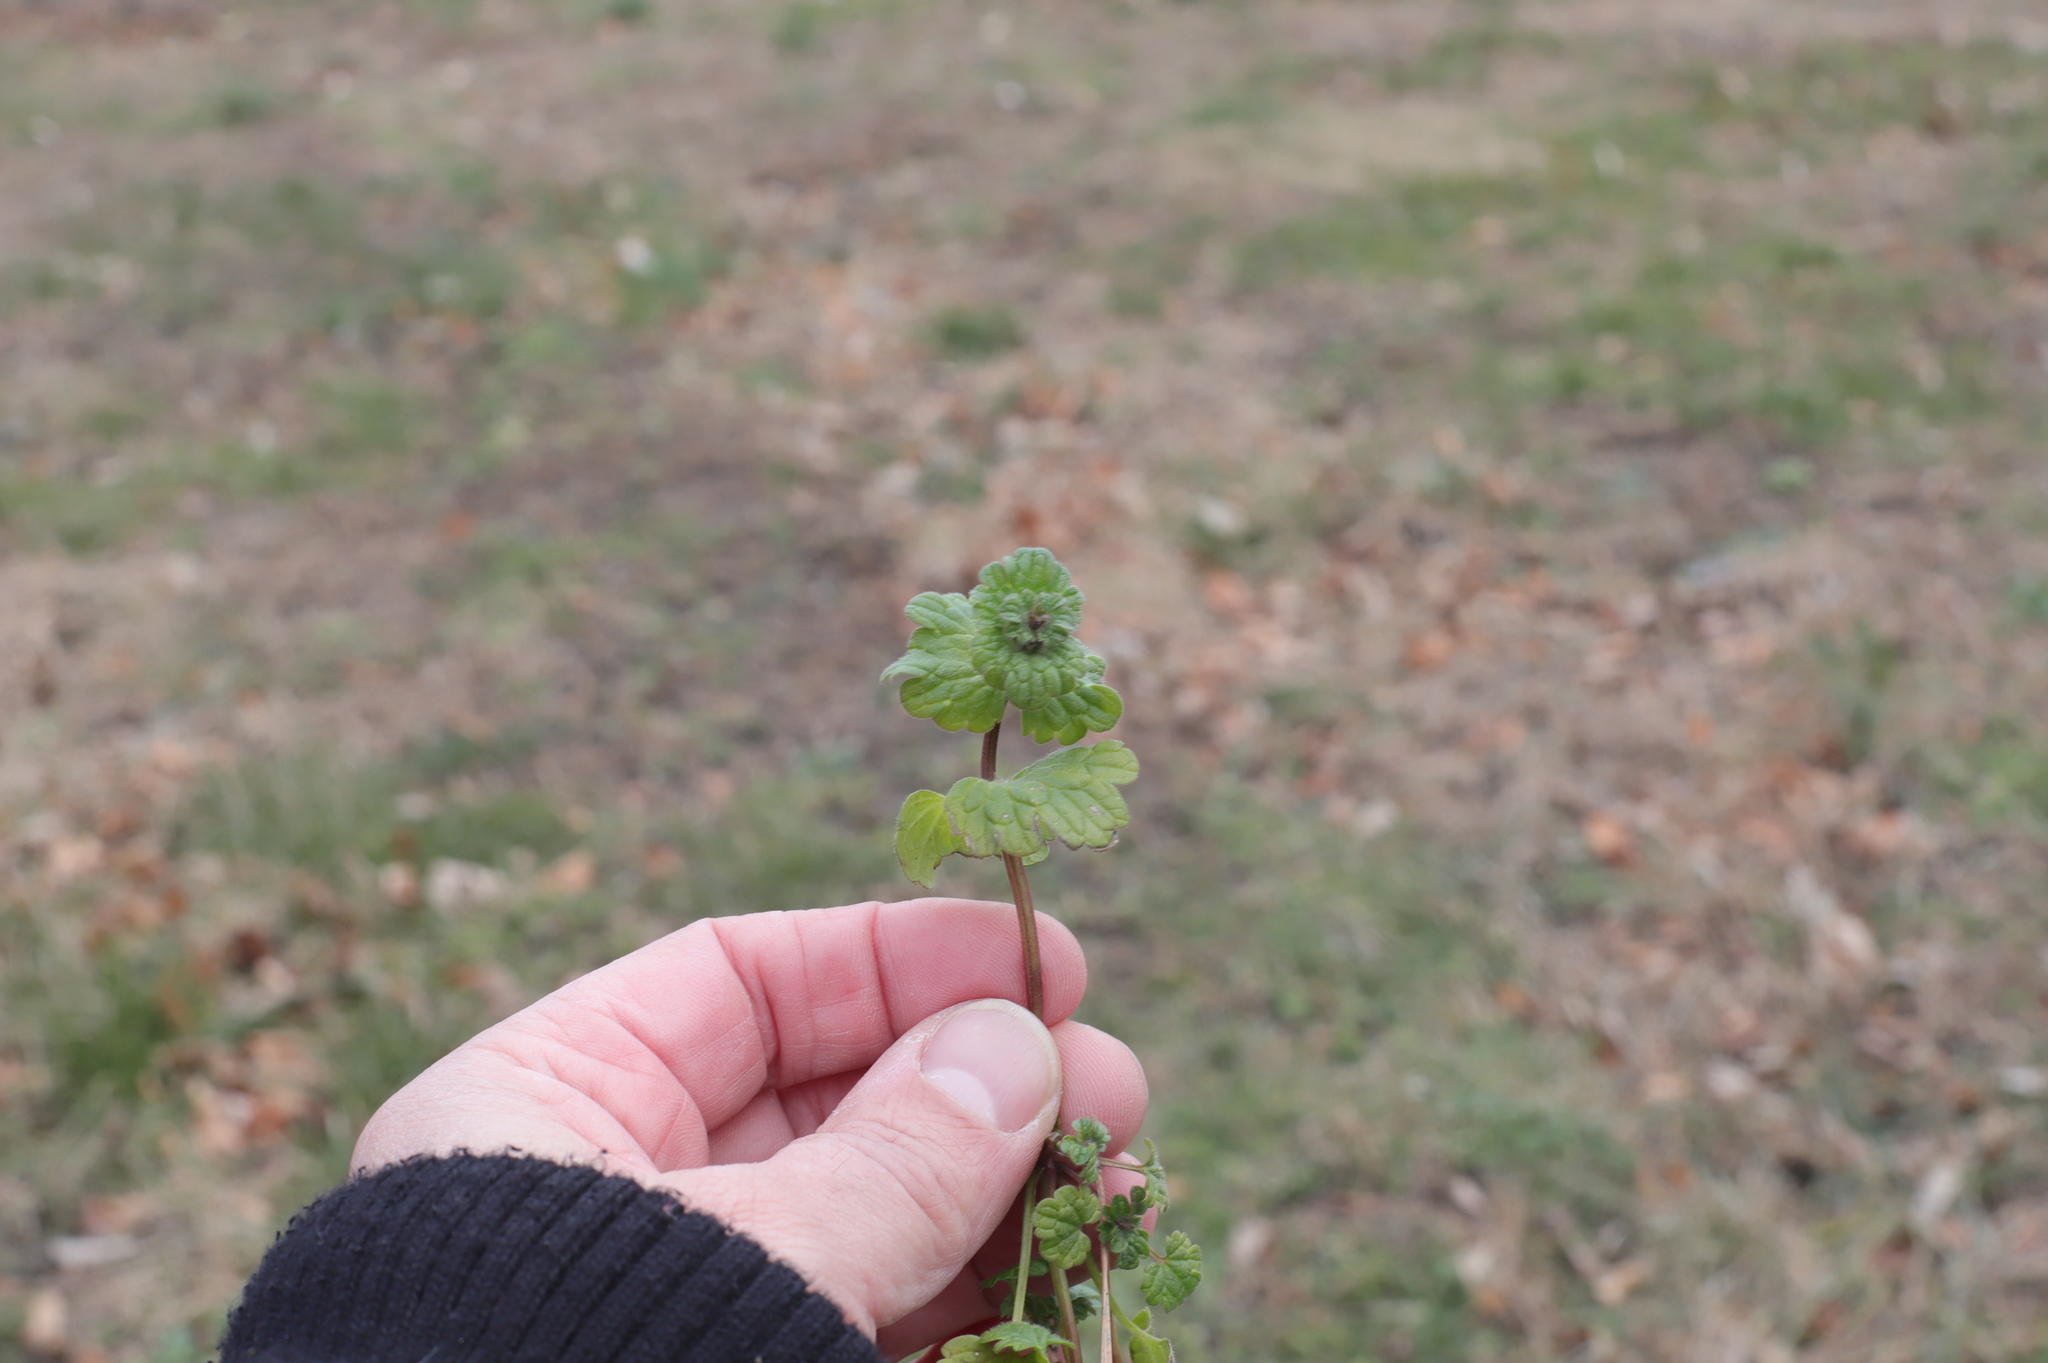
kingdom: Plantae
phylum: Tracheophyta
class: Magnoliopsida
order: Lamiales
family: Lamiaceae
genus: Lamium
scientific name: Lamium purpureum
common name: Red dead-nettle
